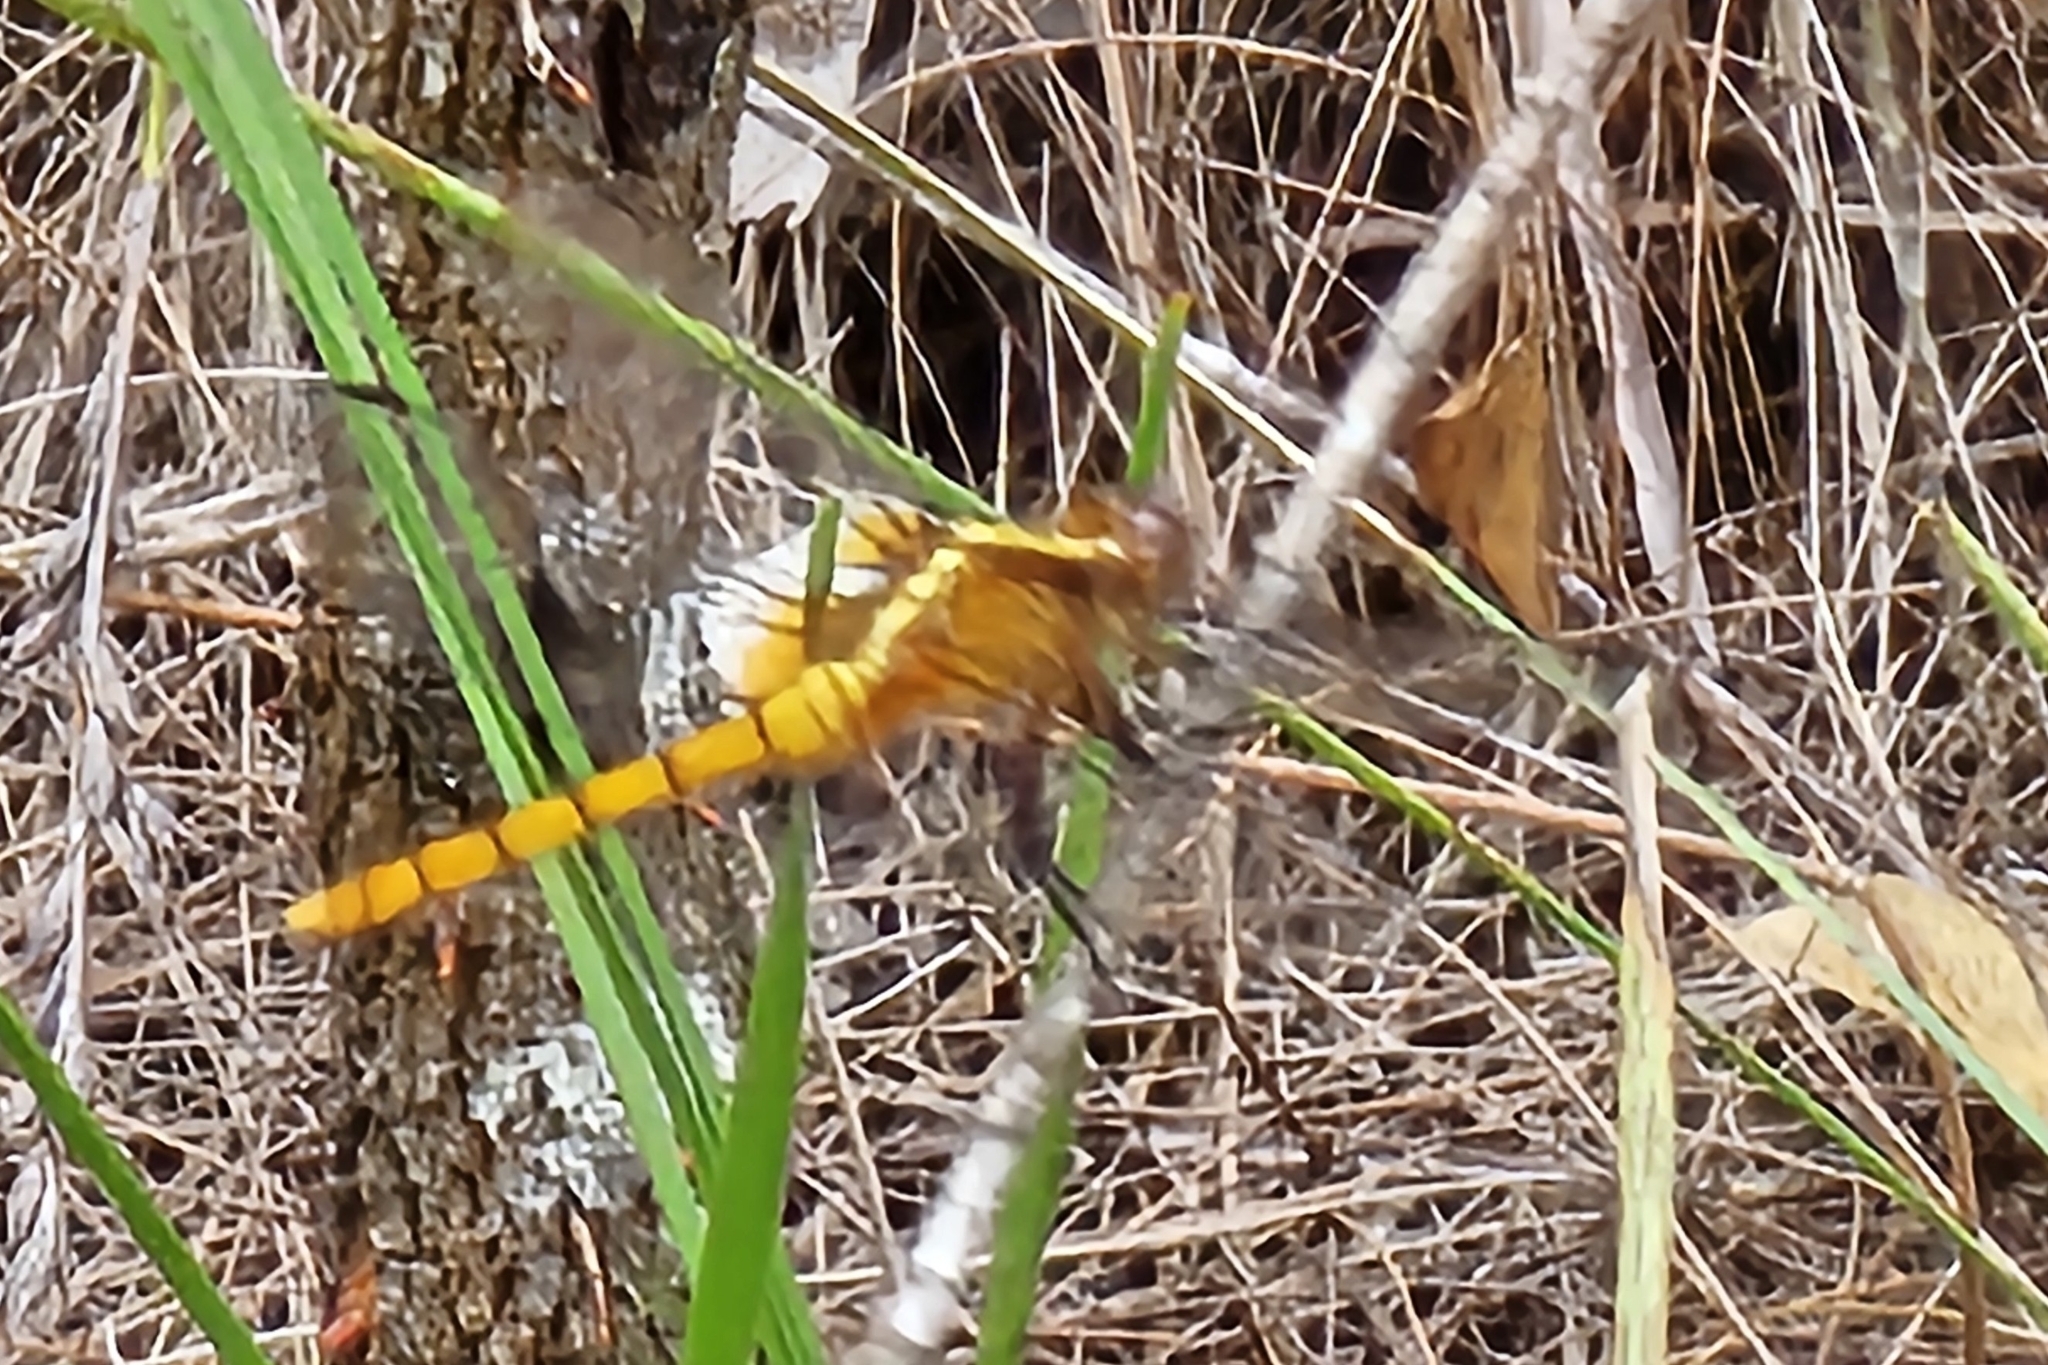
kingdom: Animalia
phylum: Arthropoda
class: Insecta
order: Odonata
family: Libellulidae
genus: Orthetrum
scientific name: Orthetrum villosovittatum
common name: Firery skimmer
